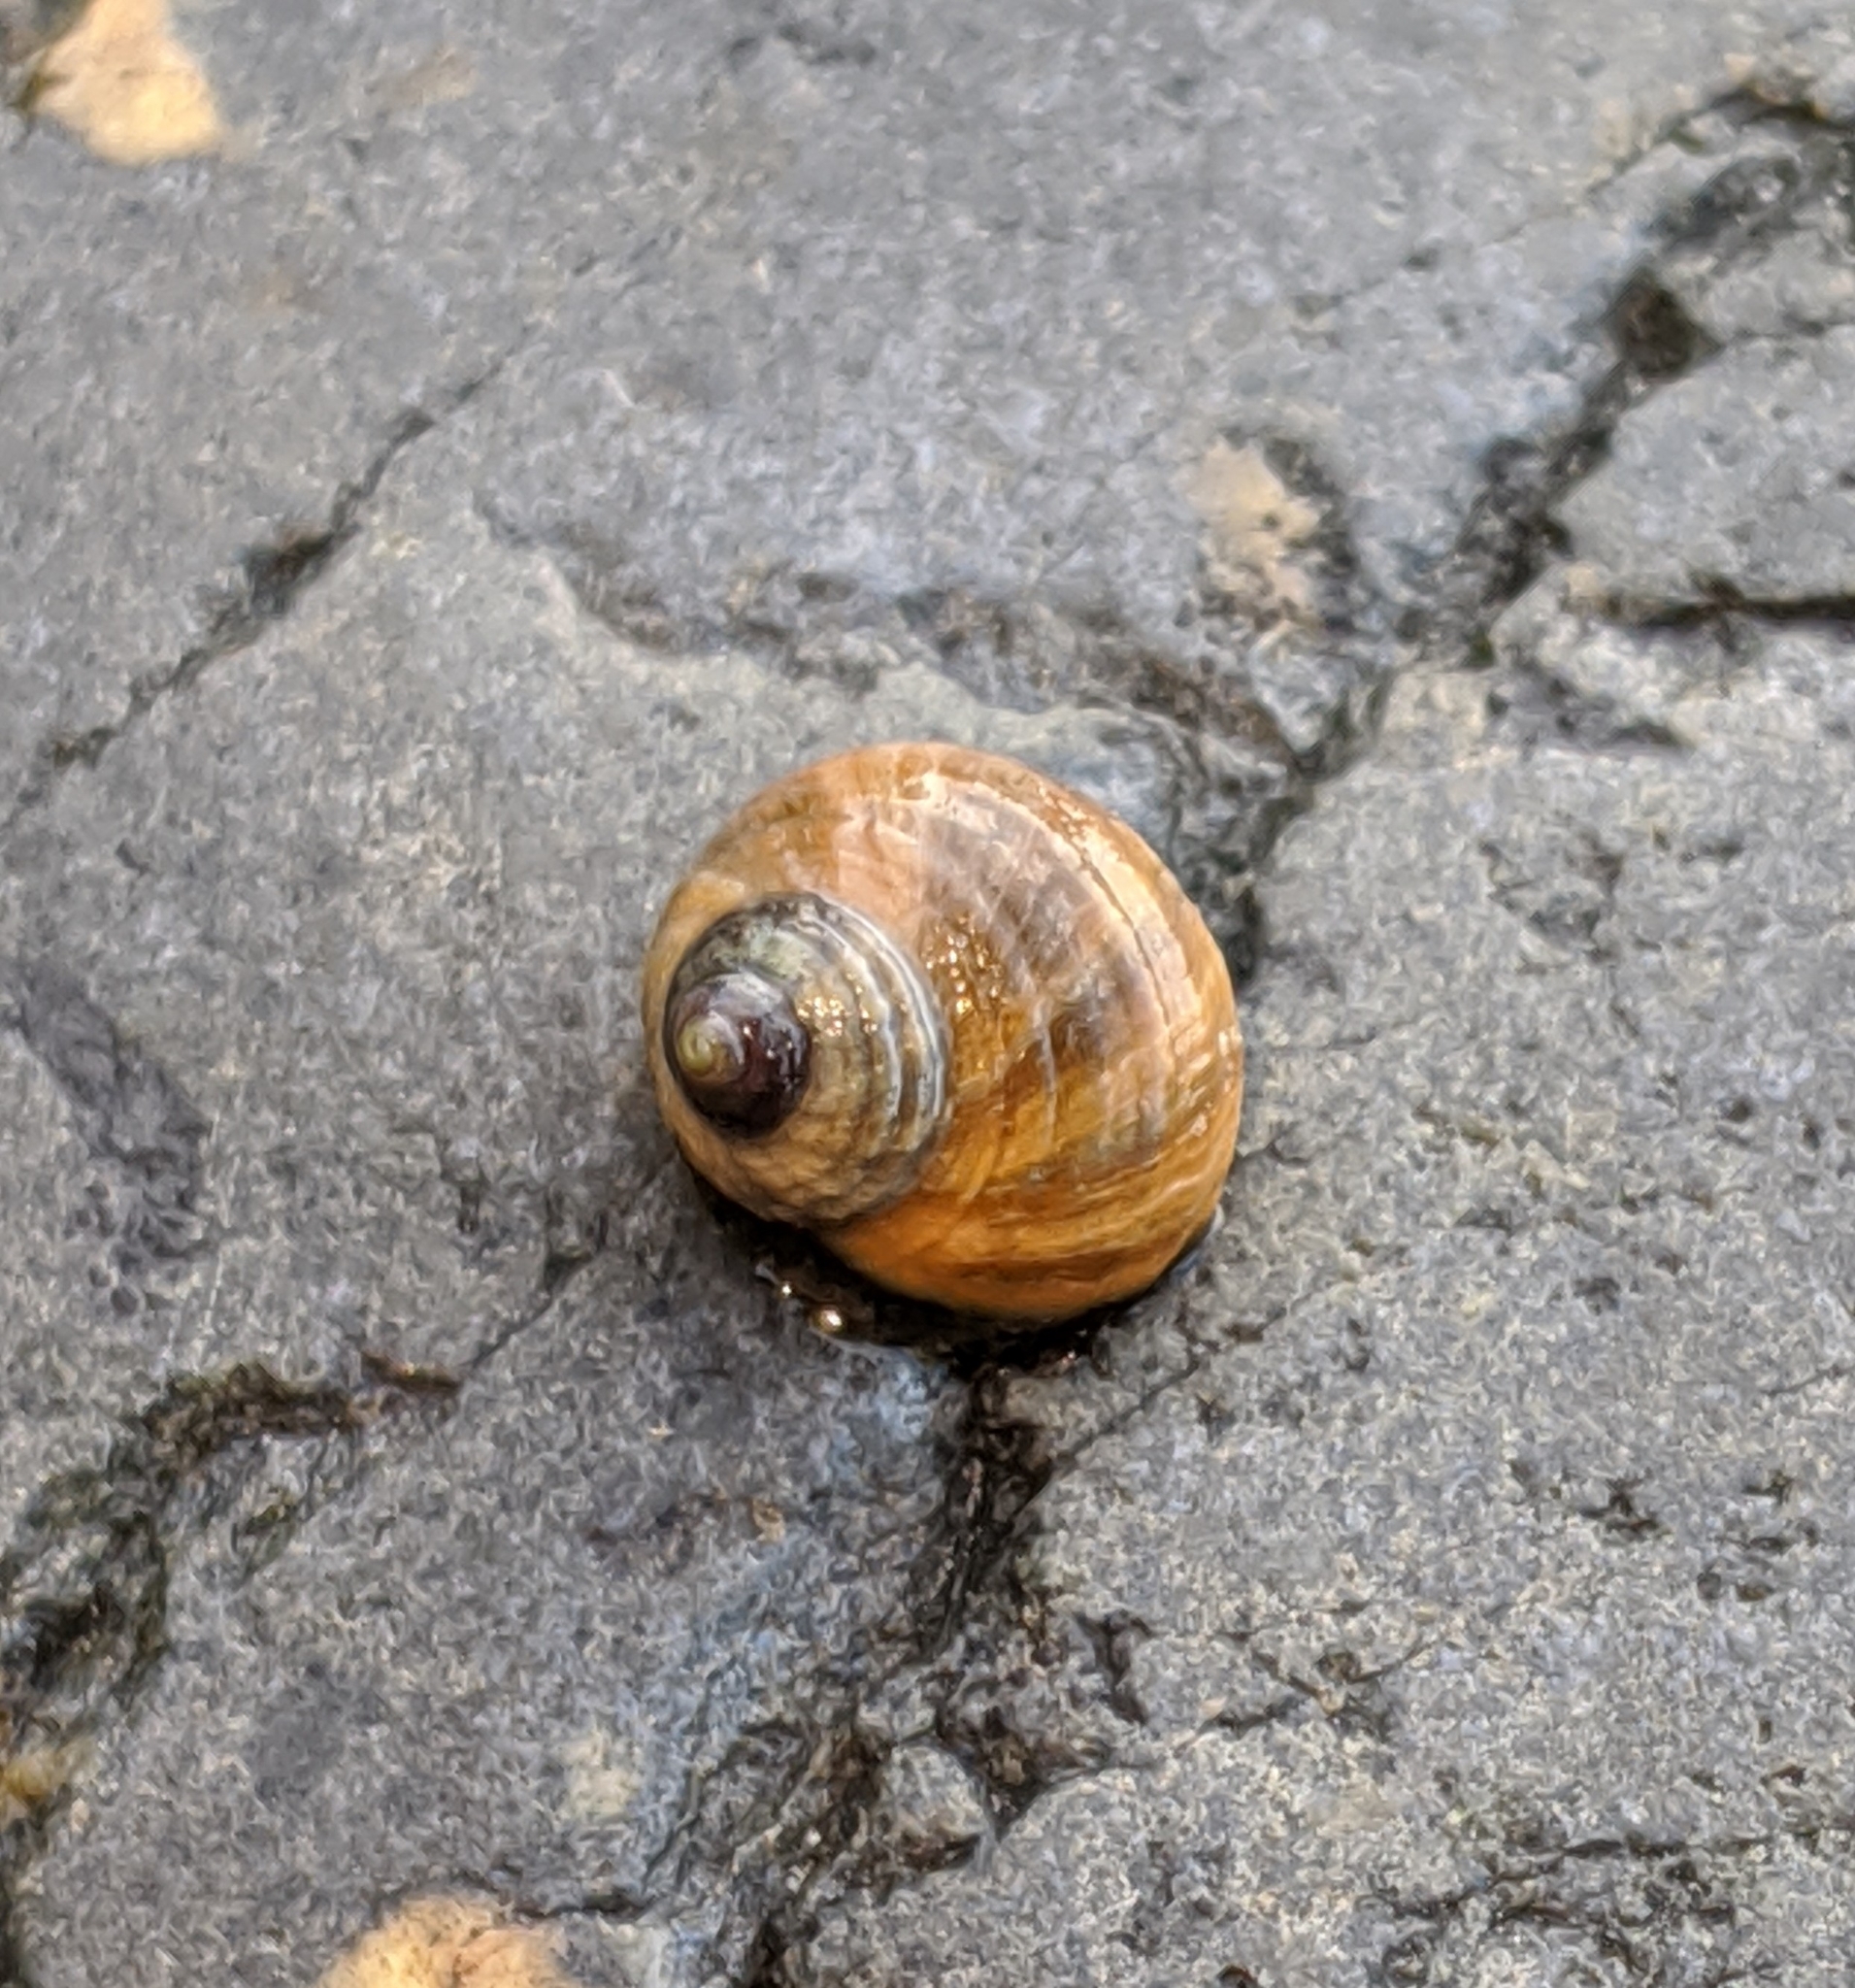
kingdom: Animalia
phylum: Mollusca
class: Gastropoda
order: Littorinimorpha
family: Littorinidae
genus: Littorina
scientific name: Littorina sitkana
